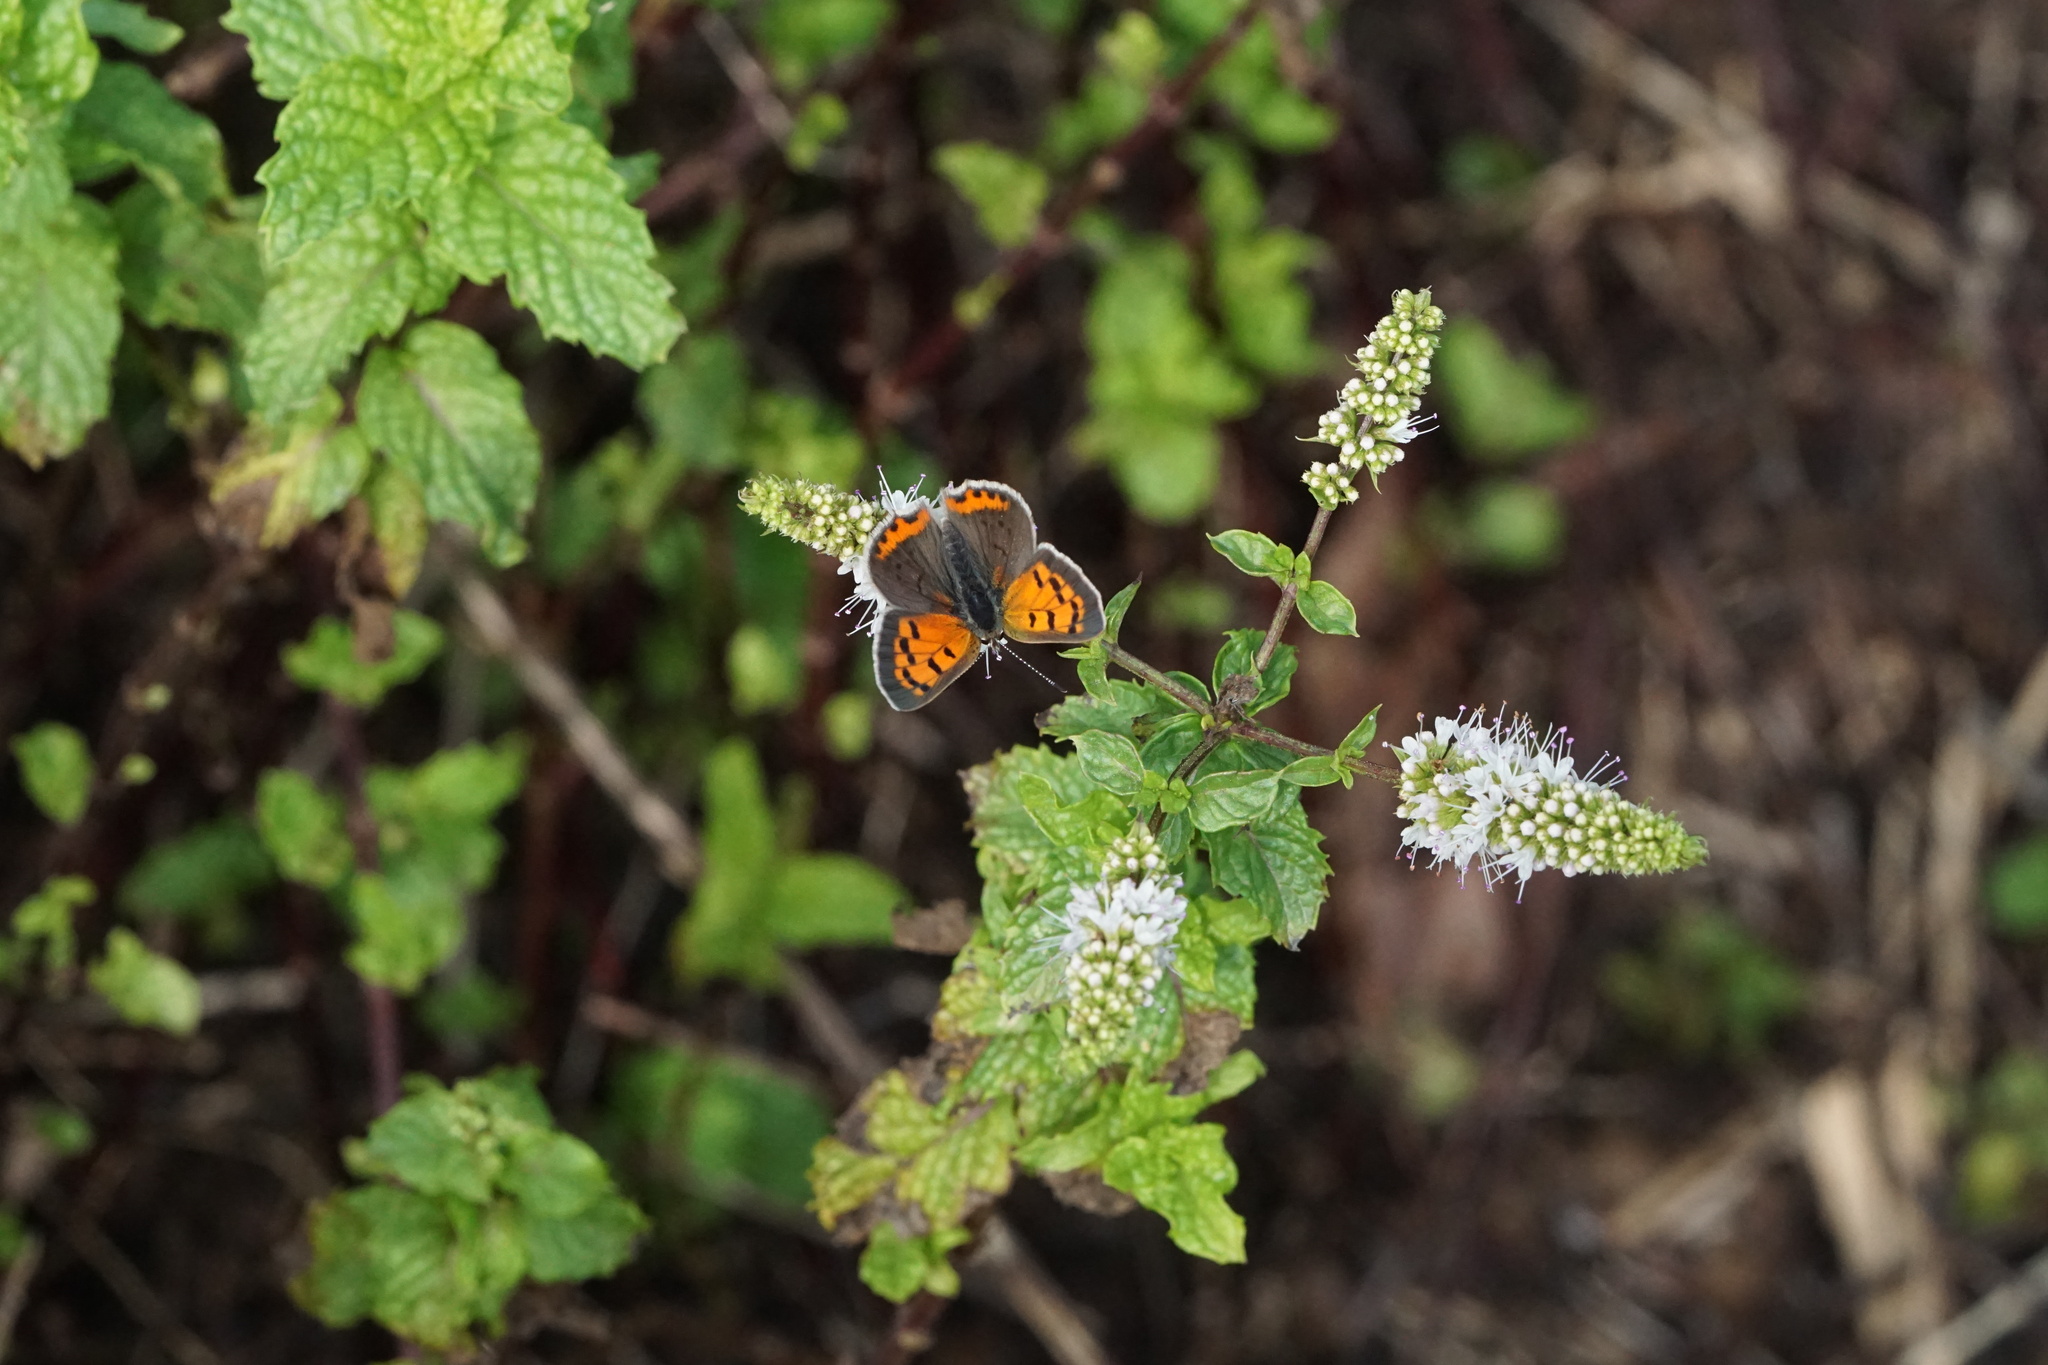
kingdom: Animalia
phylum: Arthropoda
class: Insecta
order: Lepidoptera
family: Lycaenidae
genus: Lycaena
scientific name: Lycaena hypophlaeas
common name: American copper
